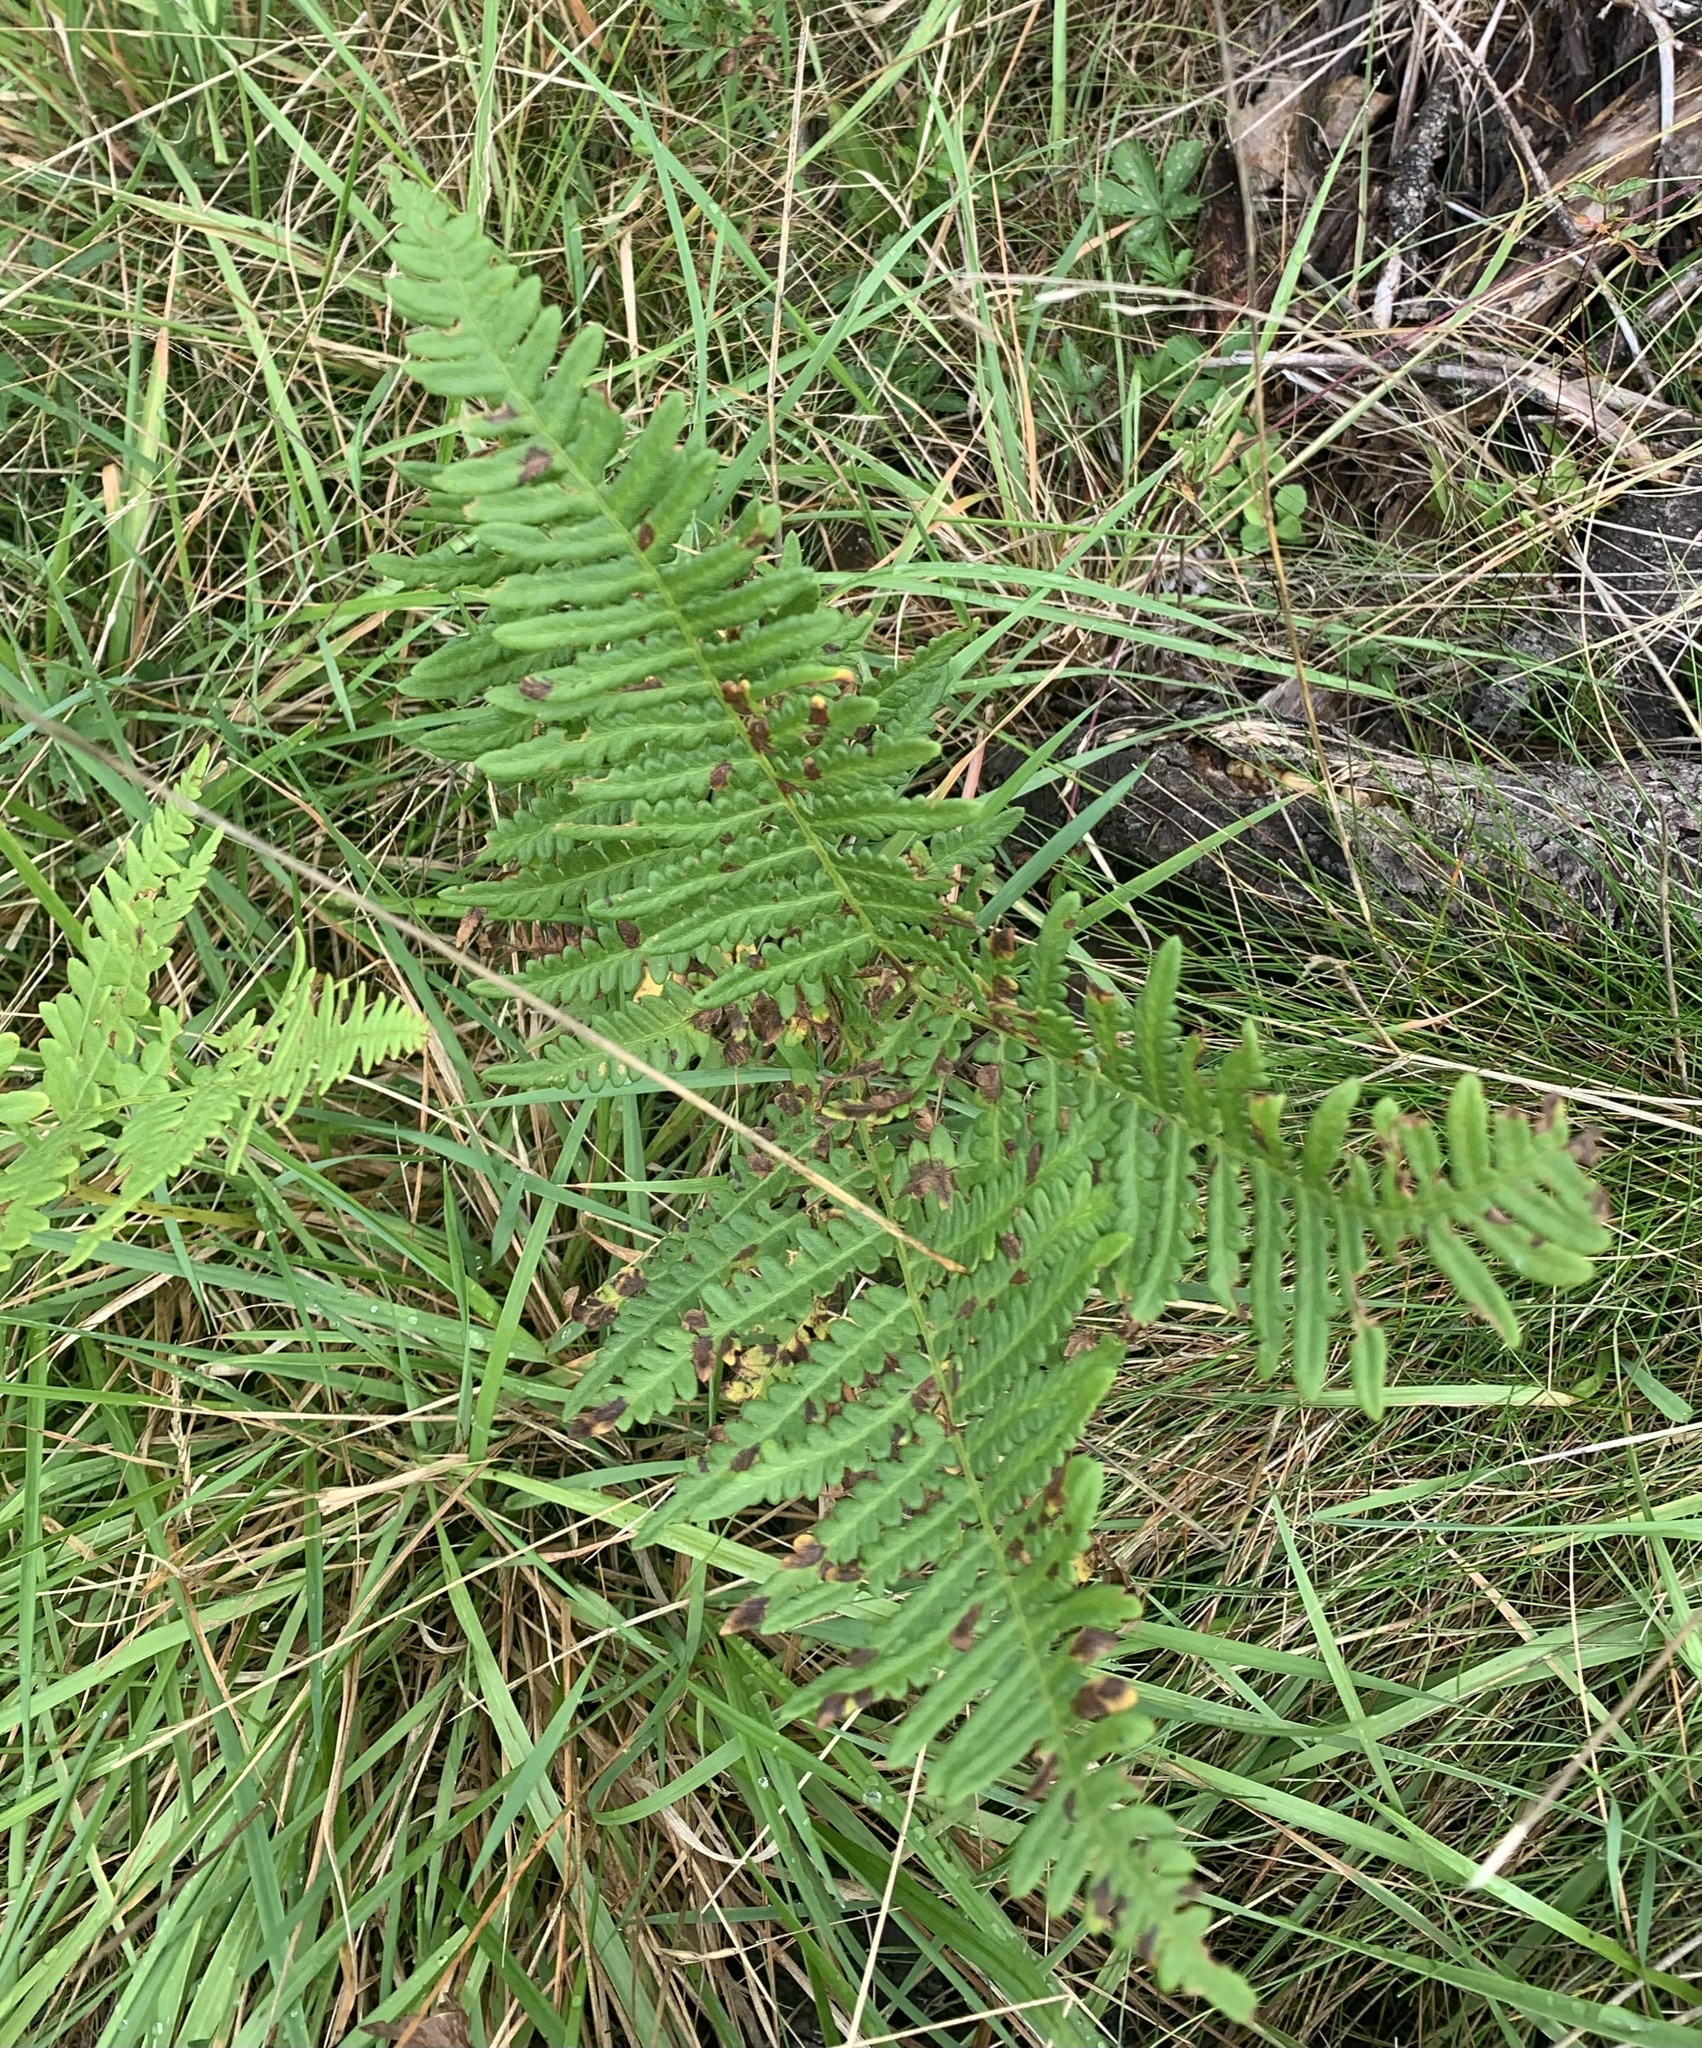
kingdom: Plantae
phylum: Tracheophyta
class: Polypodiopsida
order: Polypodiales
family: Dennstaedtiaceae
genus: Pteridium
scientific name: Pteridium aquilinum
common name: Bracken
